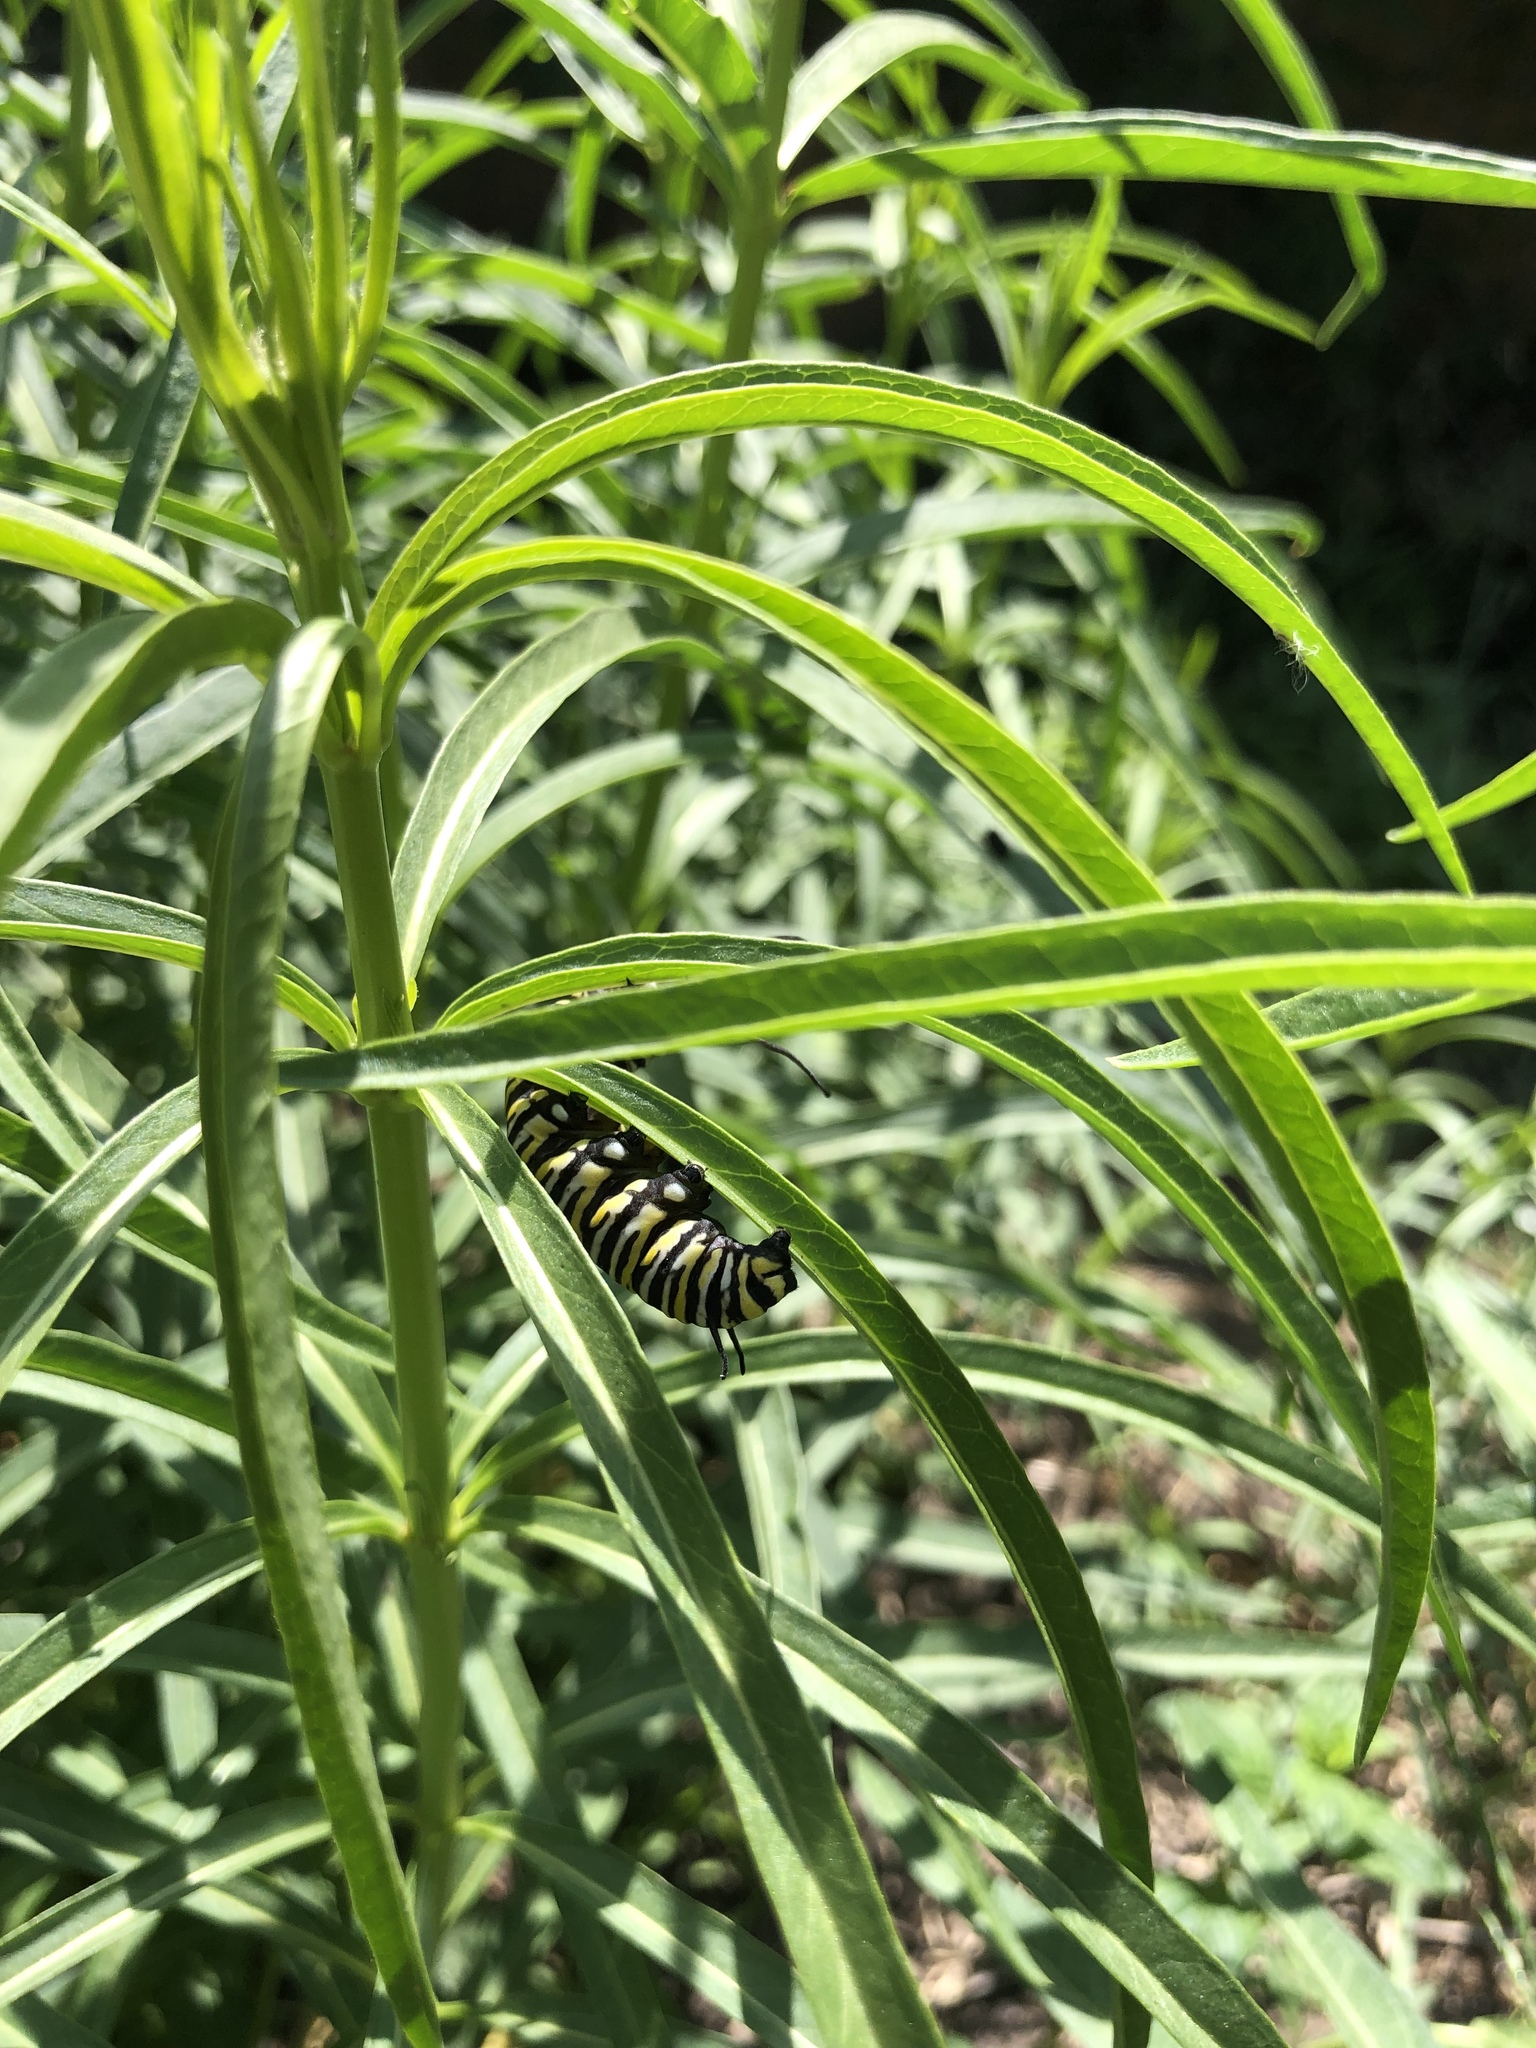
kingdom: Animalia
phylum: Arthropoda
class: Insecta
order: Lepidoptera
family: Nymphalidae
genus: Danaus
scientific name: Danaus plexippus
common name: Monarch
